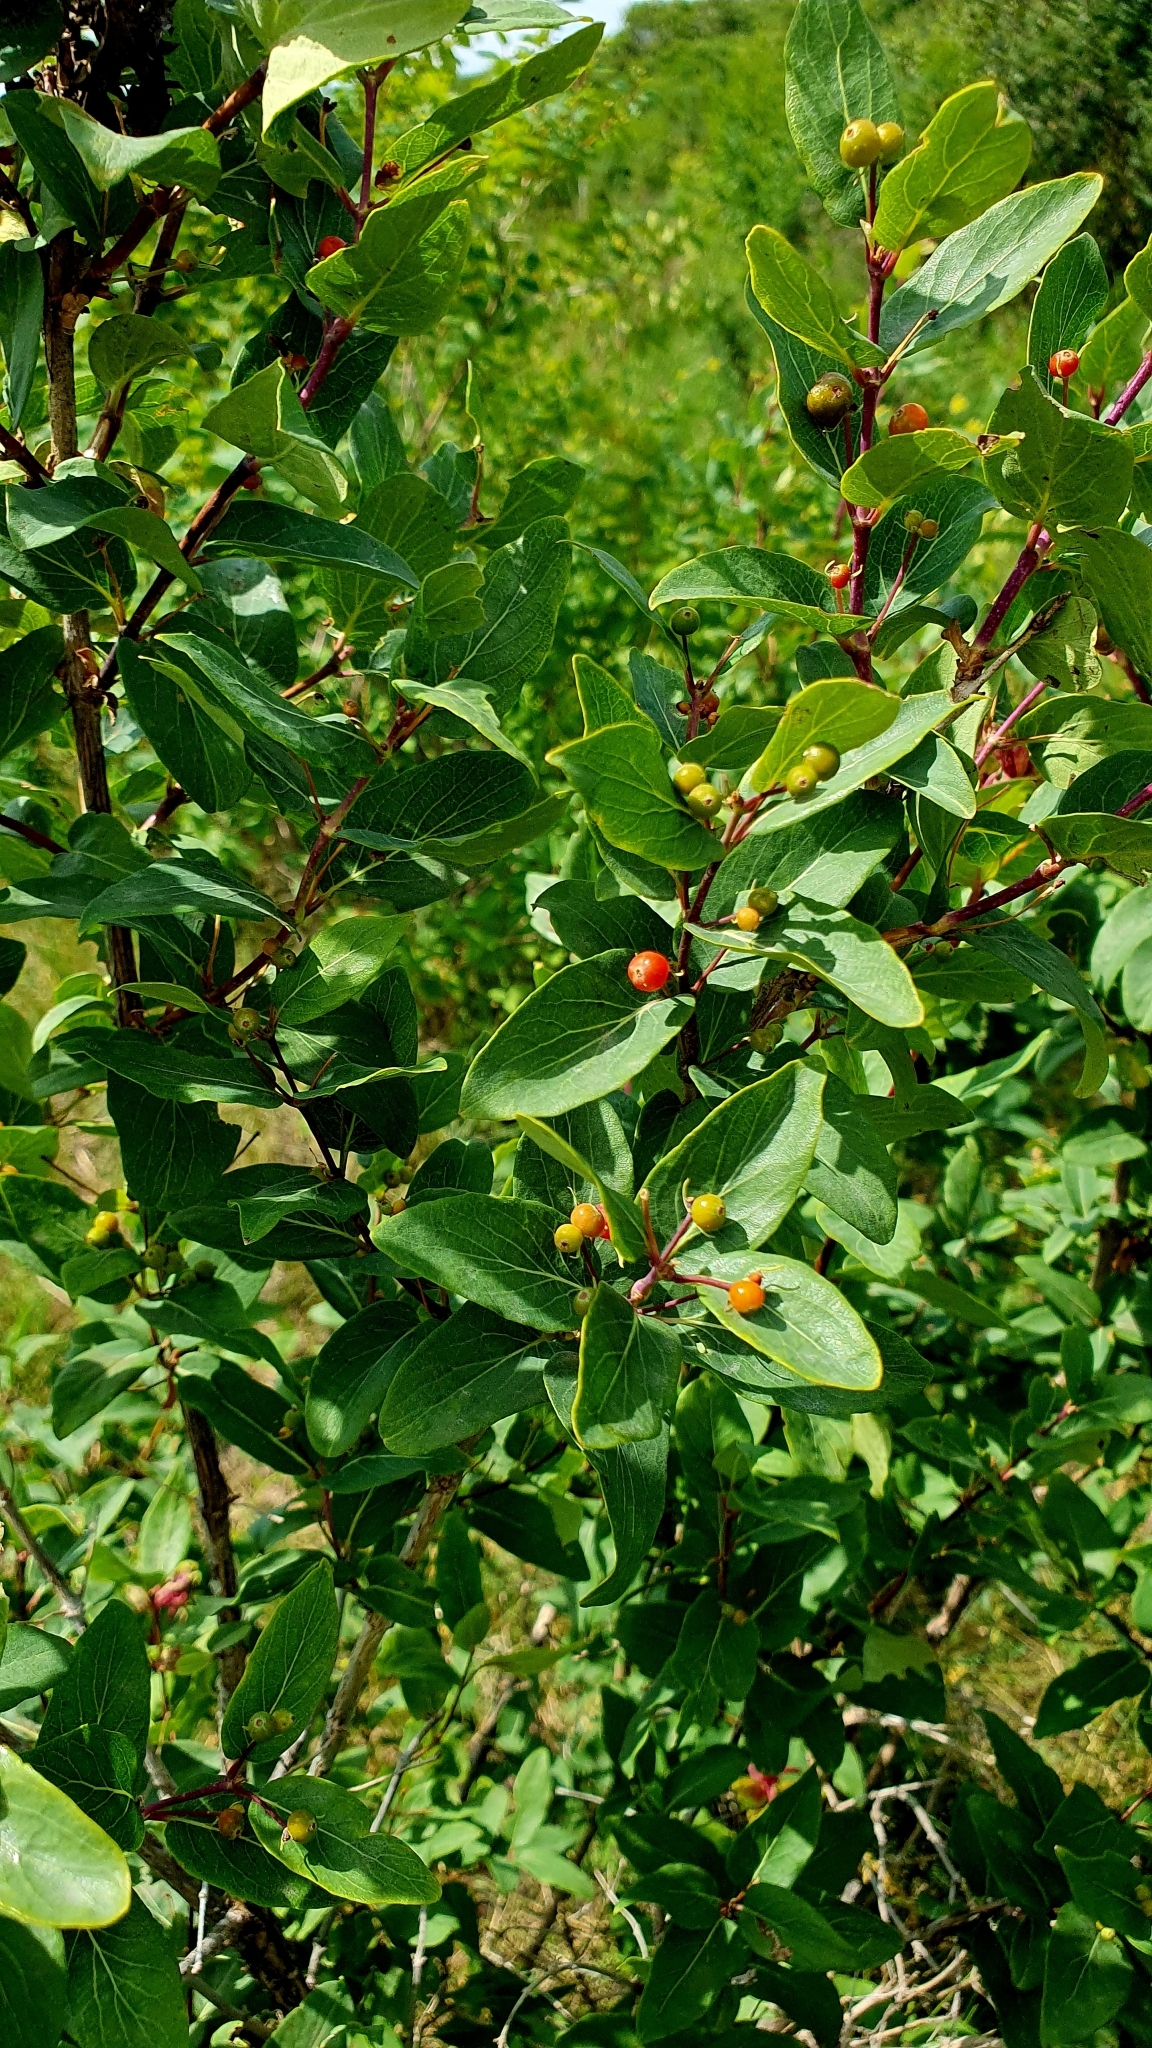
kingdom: Plantae
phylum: Tracheophyta
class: Magnoliopsida
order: Dipsacales
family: Caprifoliaceae
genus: Lonicera
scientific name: Lonicera tatarica
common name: Tatarian honeysuckle
